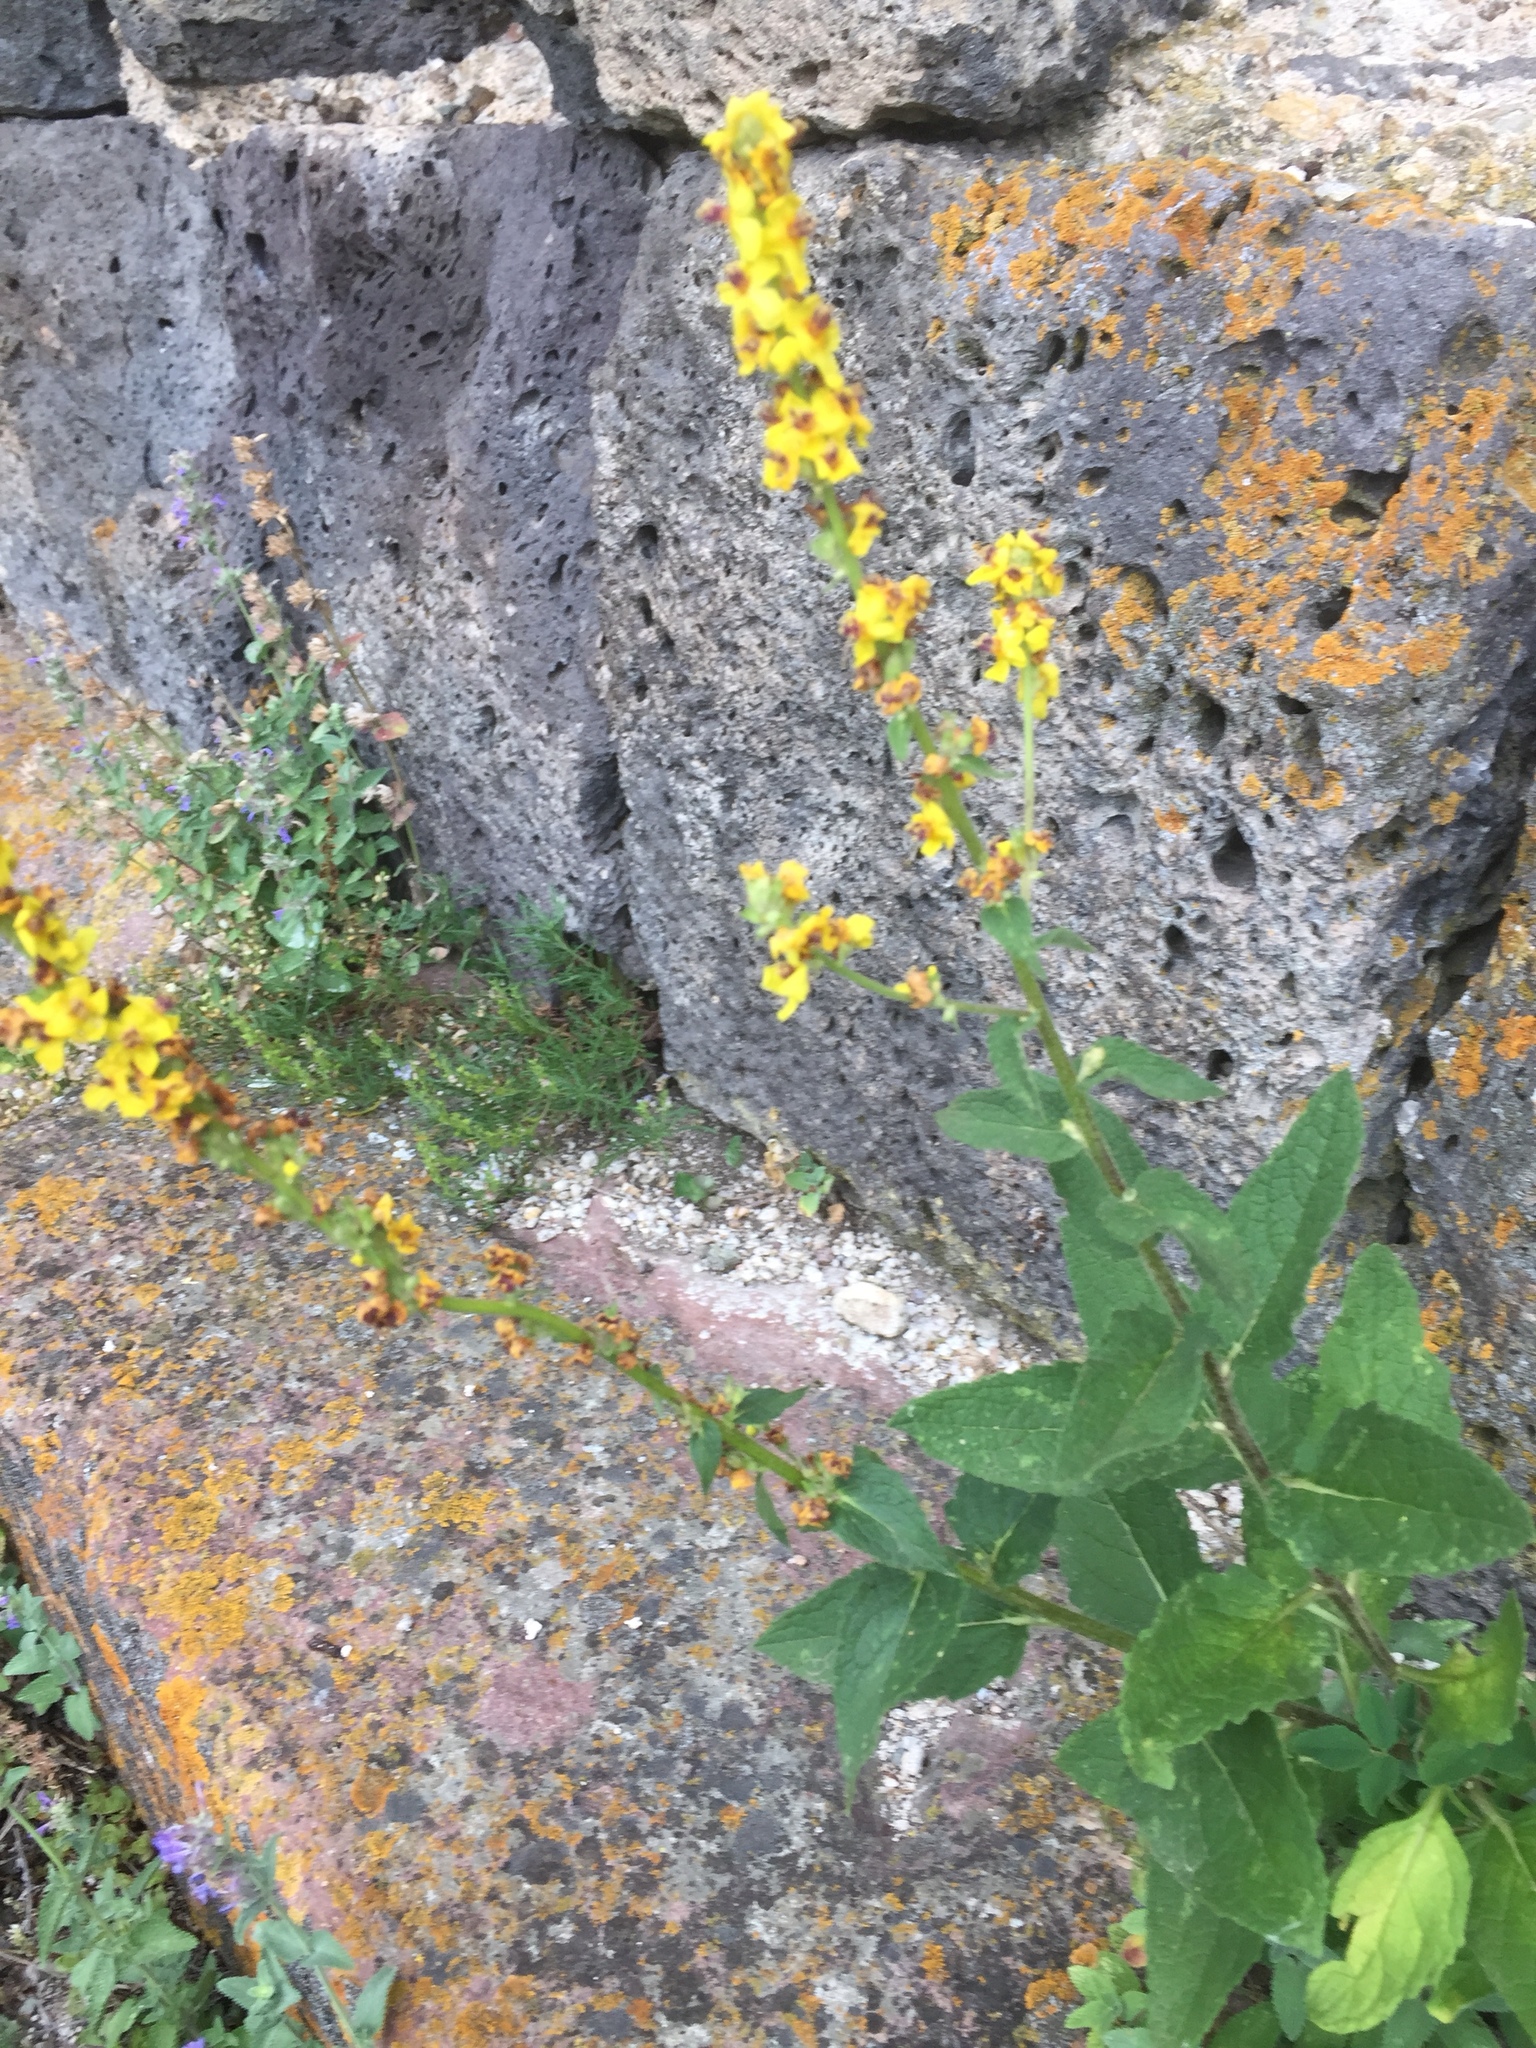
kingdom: Plantae
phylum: Tracheophyta
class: Magnoliopsida
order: Lamiales
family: Scrophulariaceae
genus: Verbascum
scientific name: Verbascum nigrum
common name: Dark mullein
